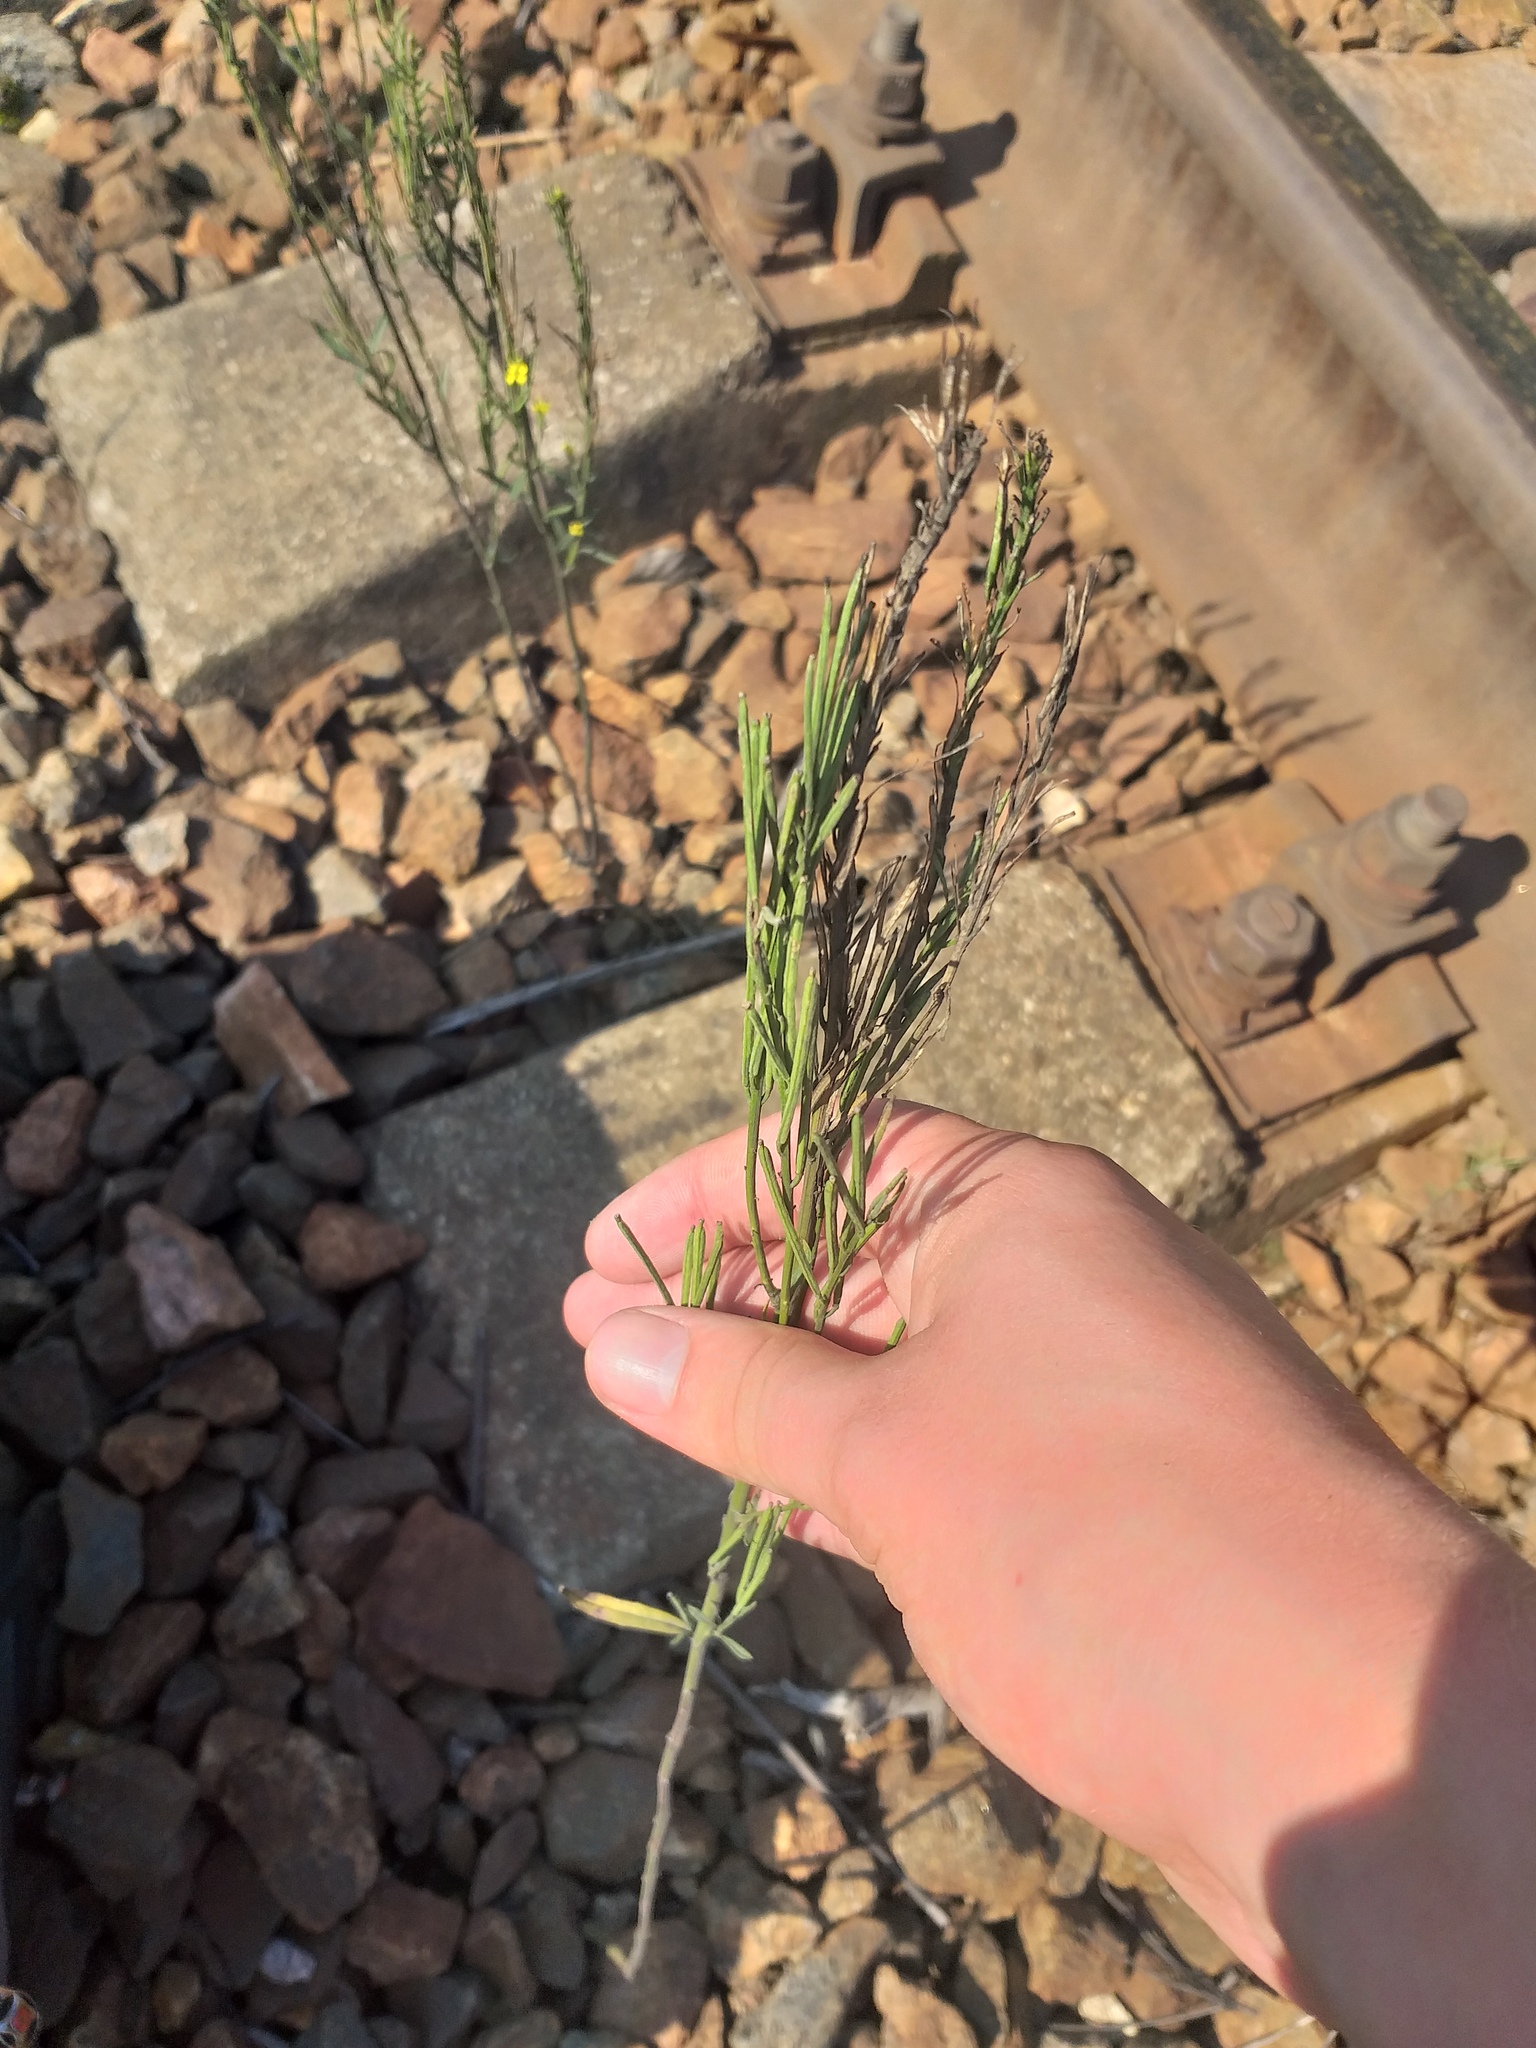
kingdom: Plantae
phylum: Tracheophyta
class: Magnoliopsida
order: Brassicales
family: Brassicaceae
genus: Erysimum
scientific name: Erysimum hieraciifolium
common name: European wallflower
